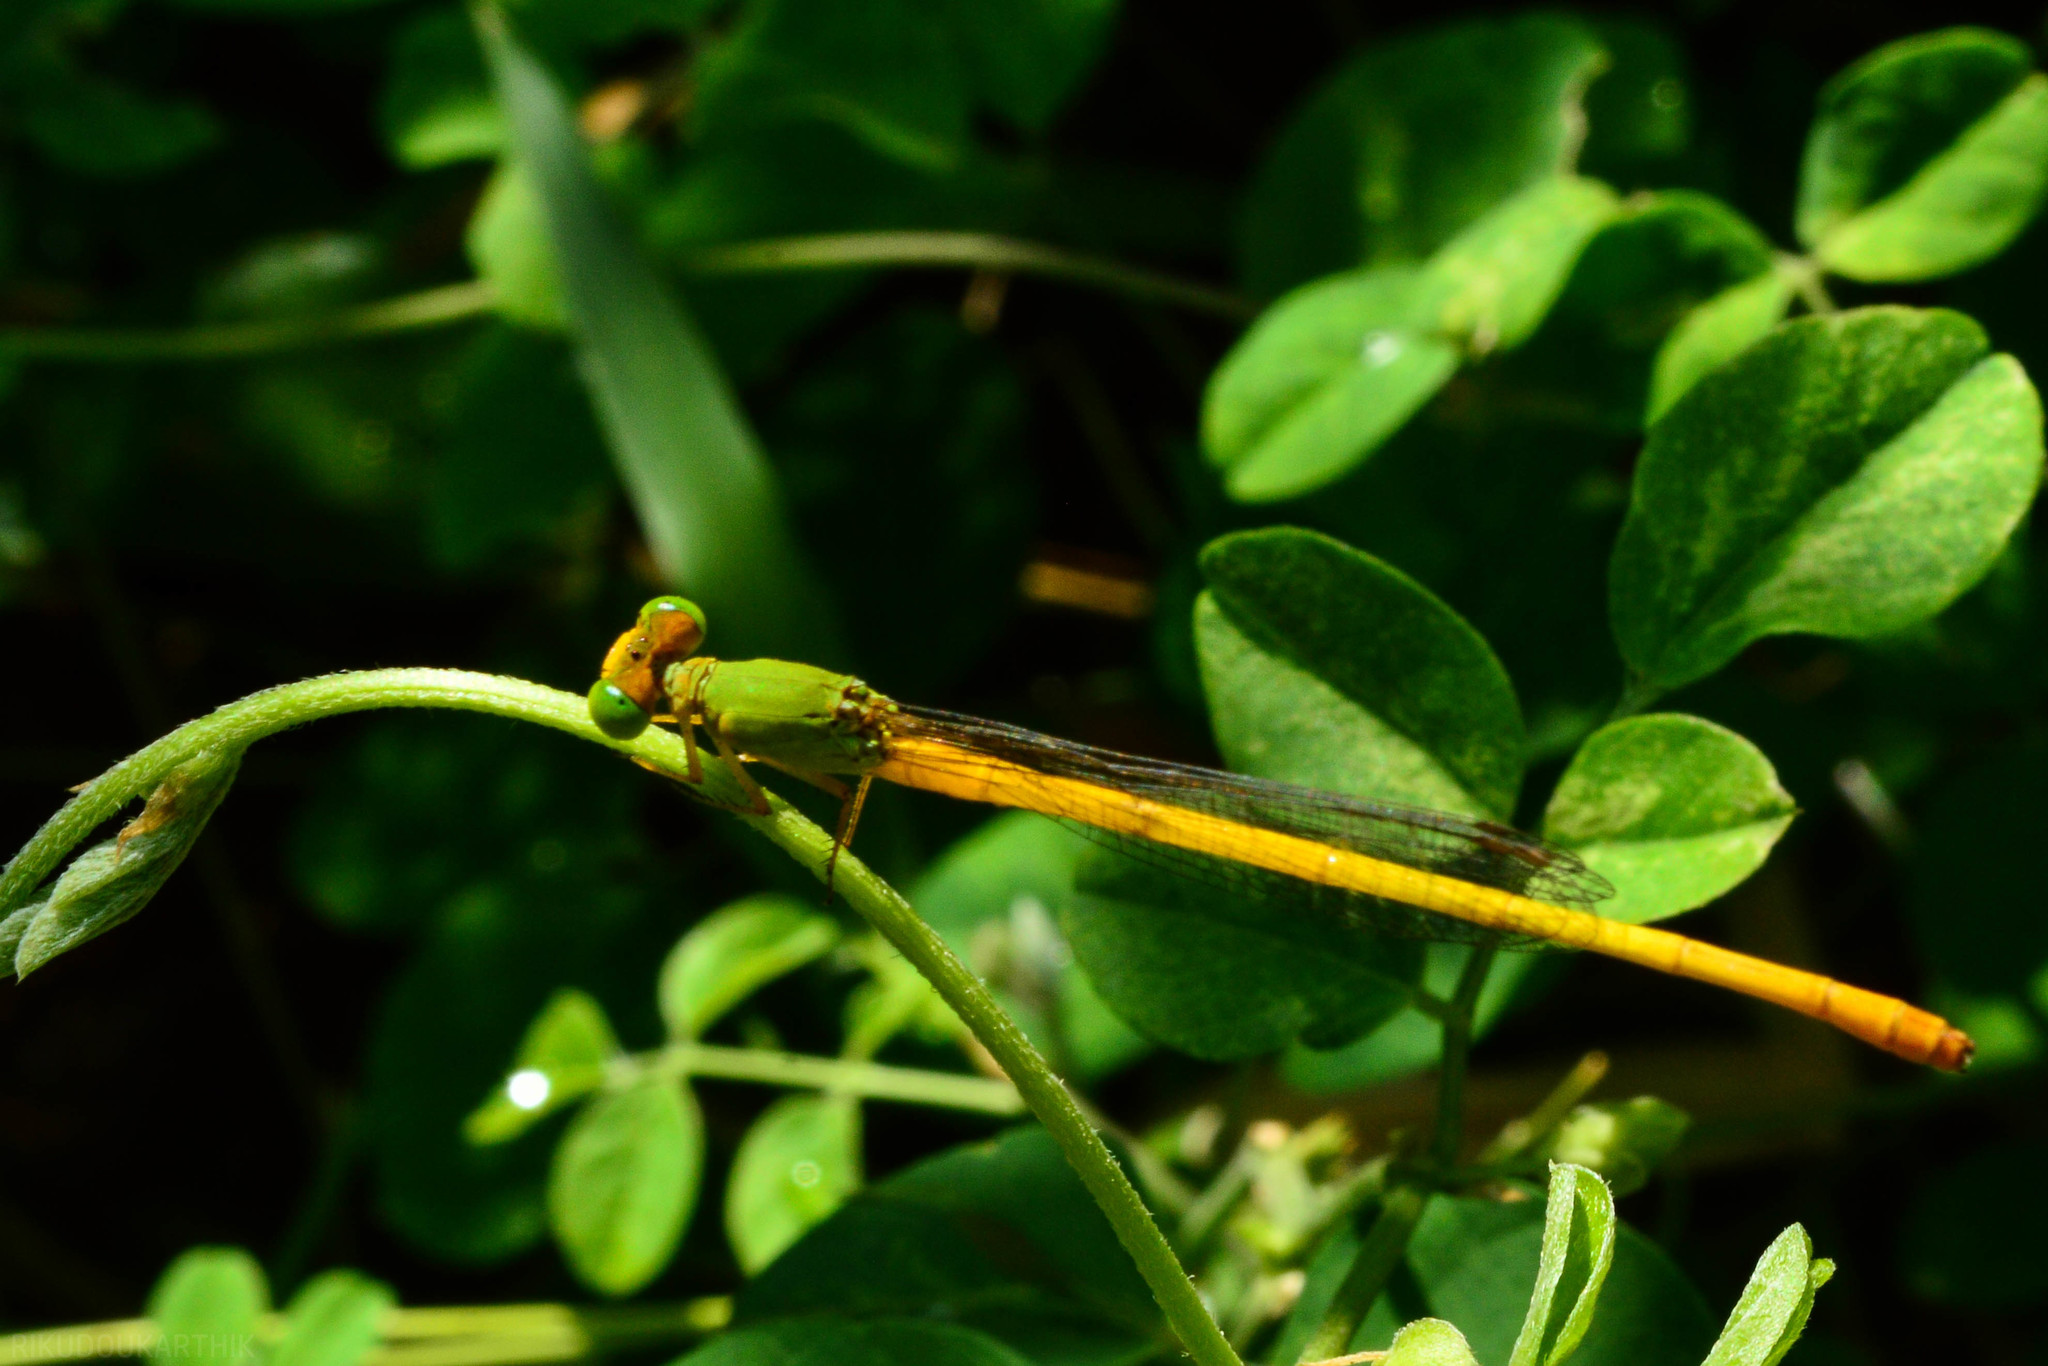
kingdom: Animalia
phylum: Arthropoda
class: Insecta
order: Odonata
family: Coenagrionidae
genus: Ceriagrion
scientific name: Ceriagrion coromandelianum
